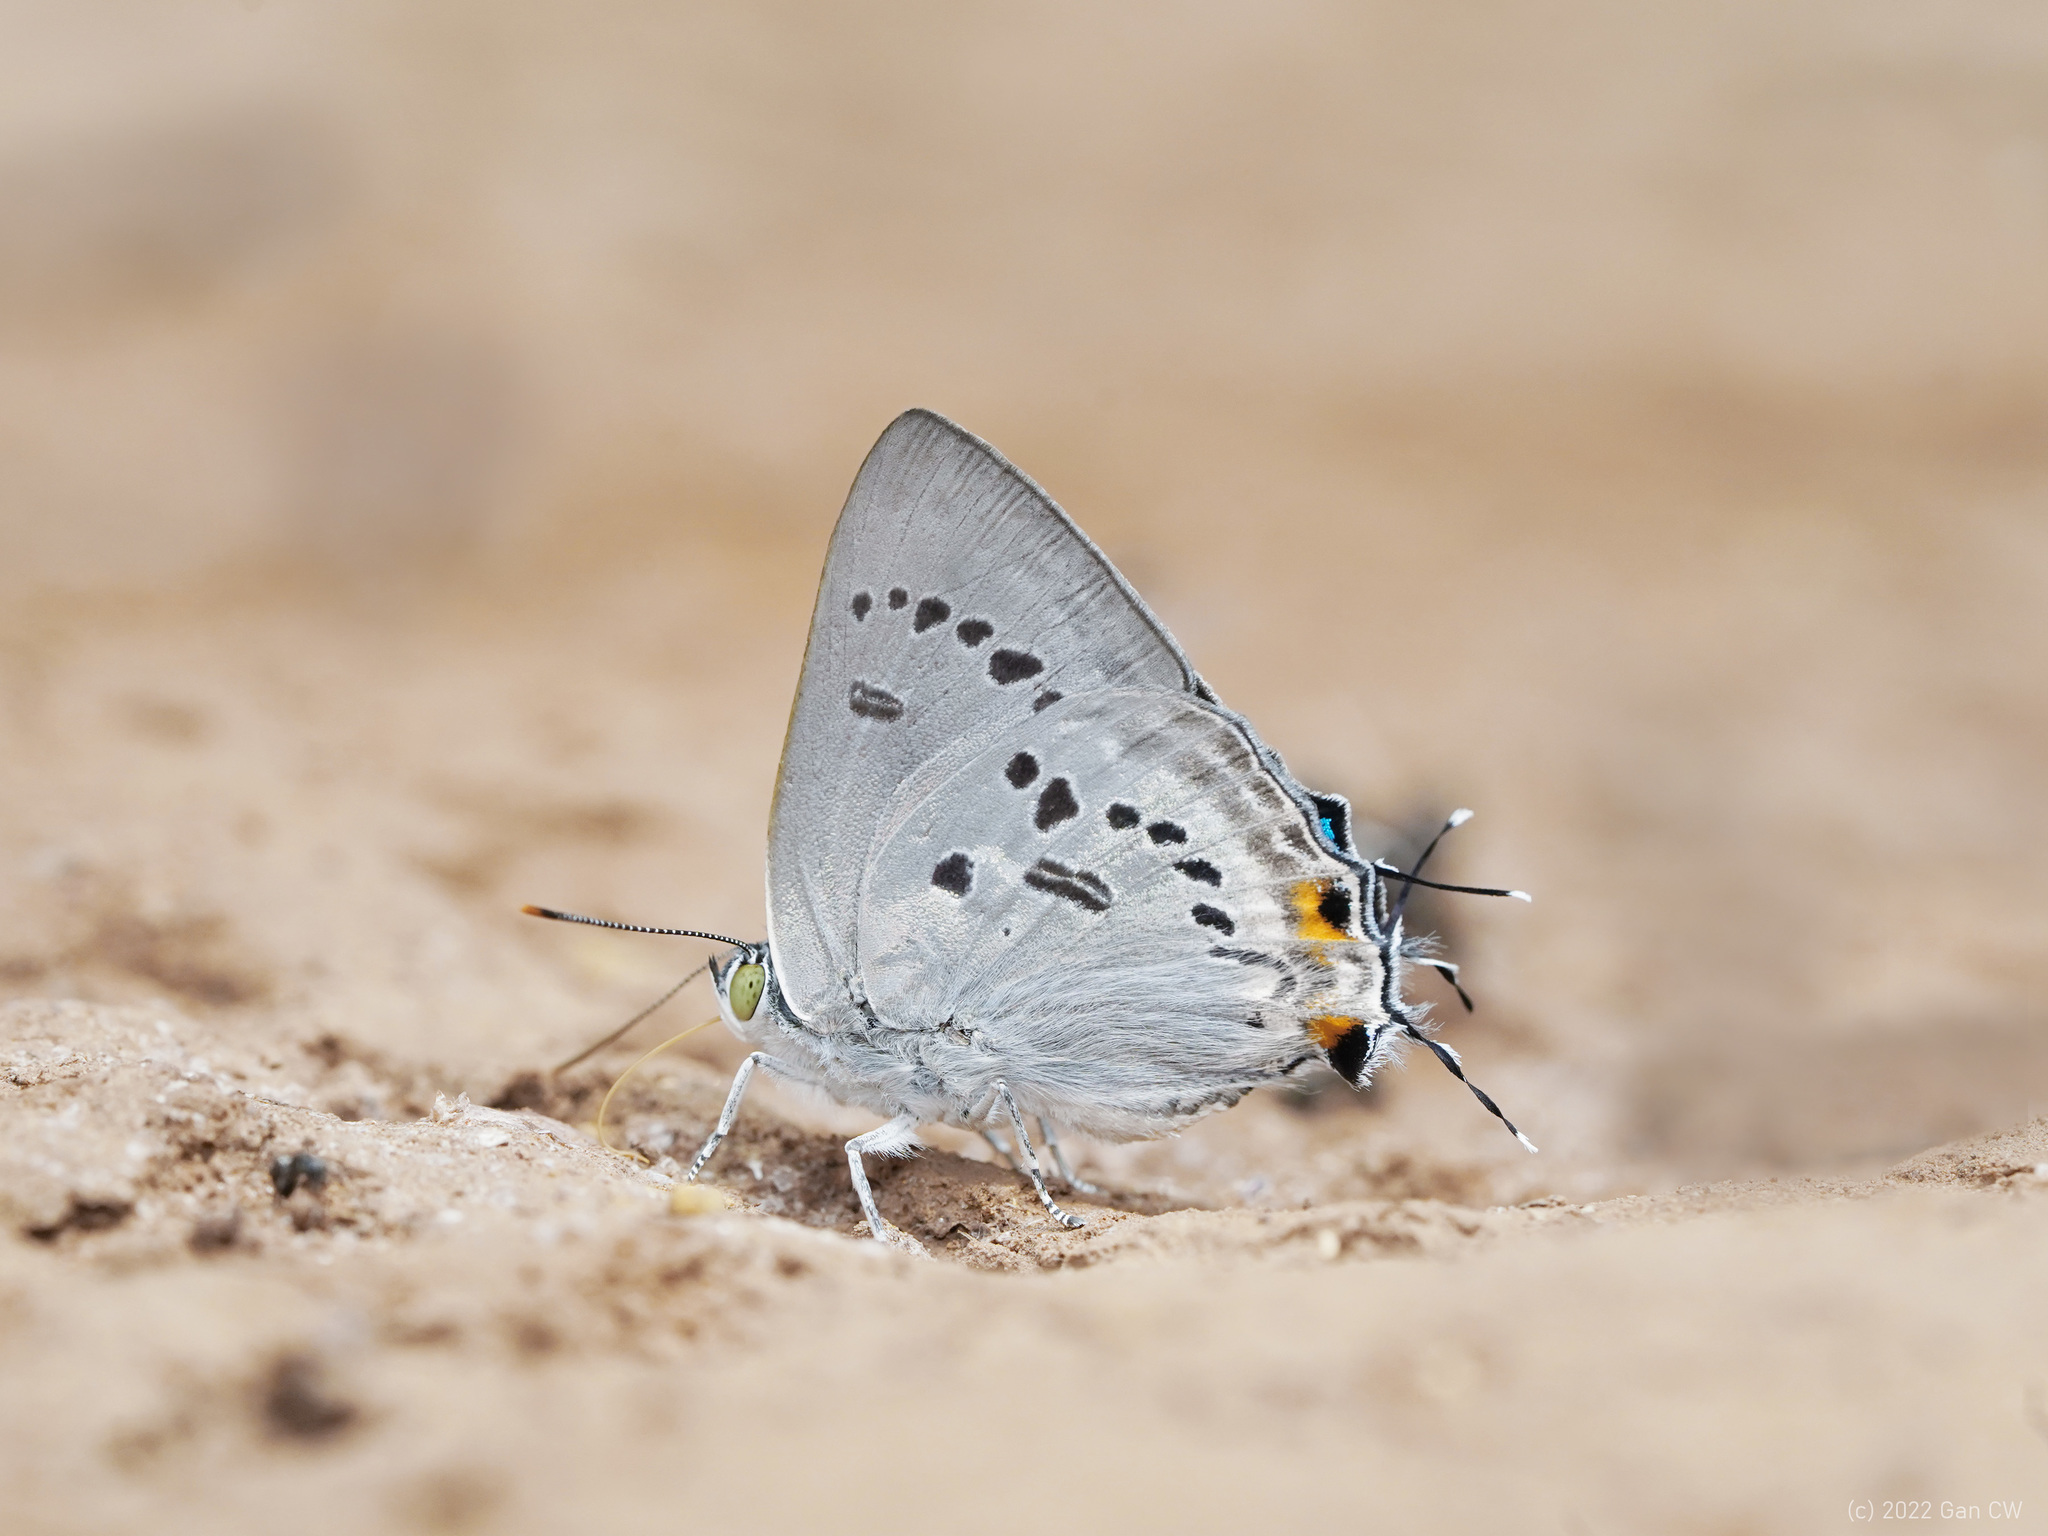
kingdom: Animalia
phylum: Arthropoda
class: Insecta
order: Lepidoptera
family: Lycaenidae
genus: Ancema
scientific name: Ancema ctesia
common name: Bi-spot royal
